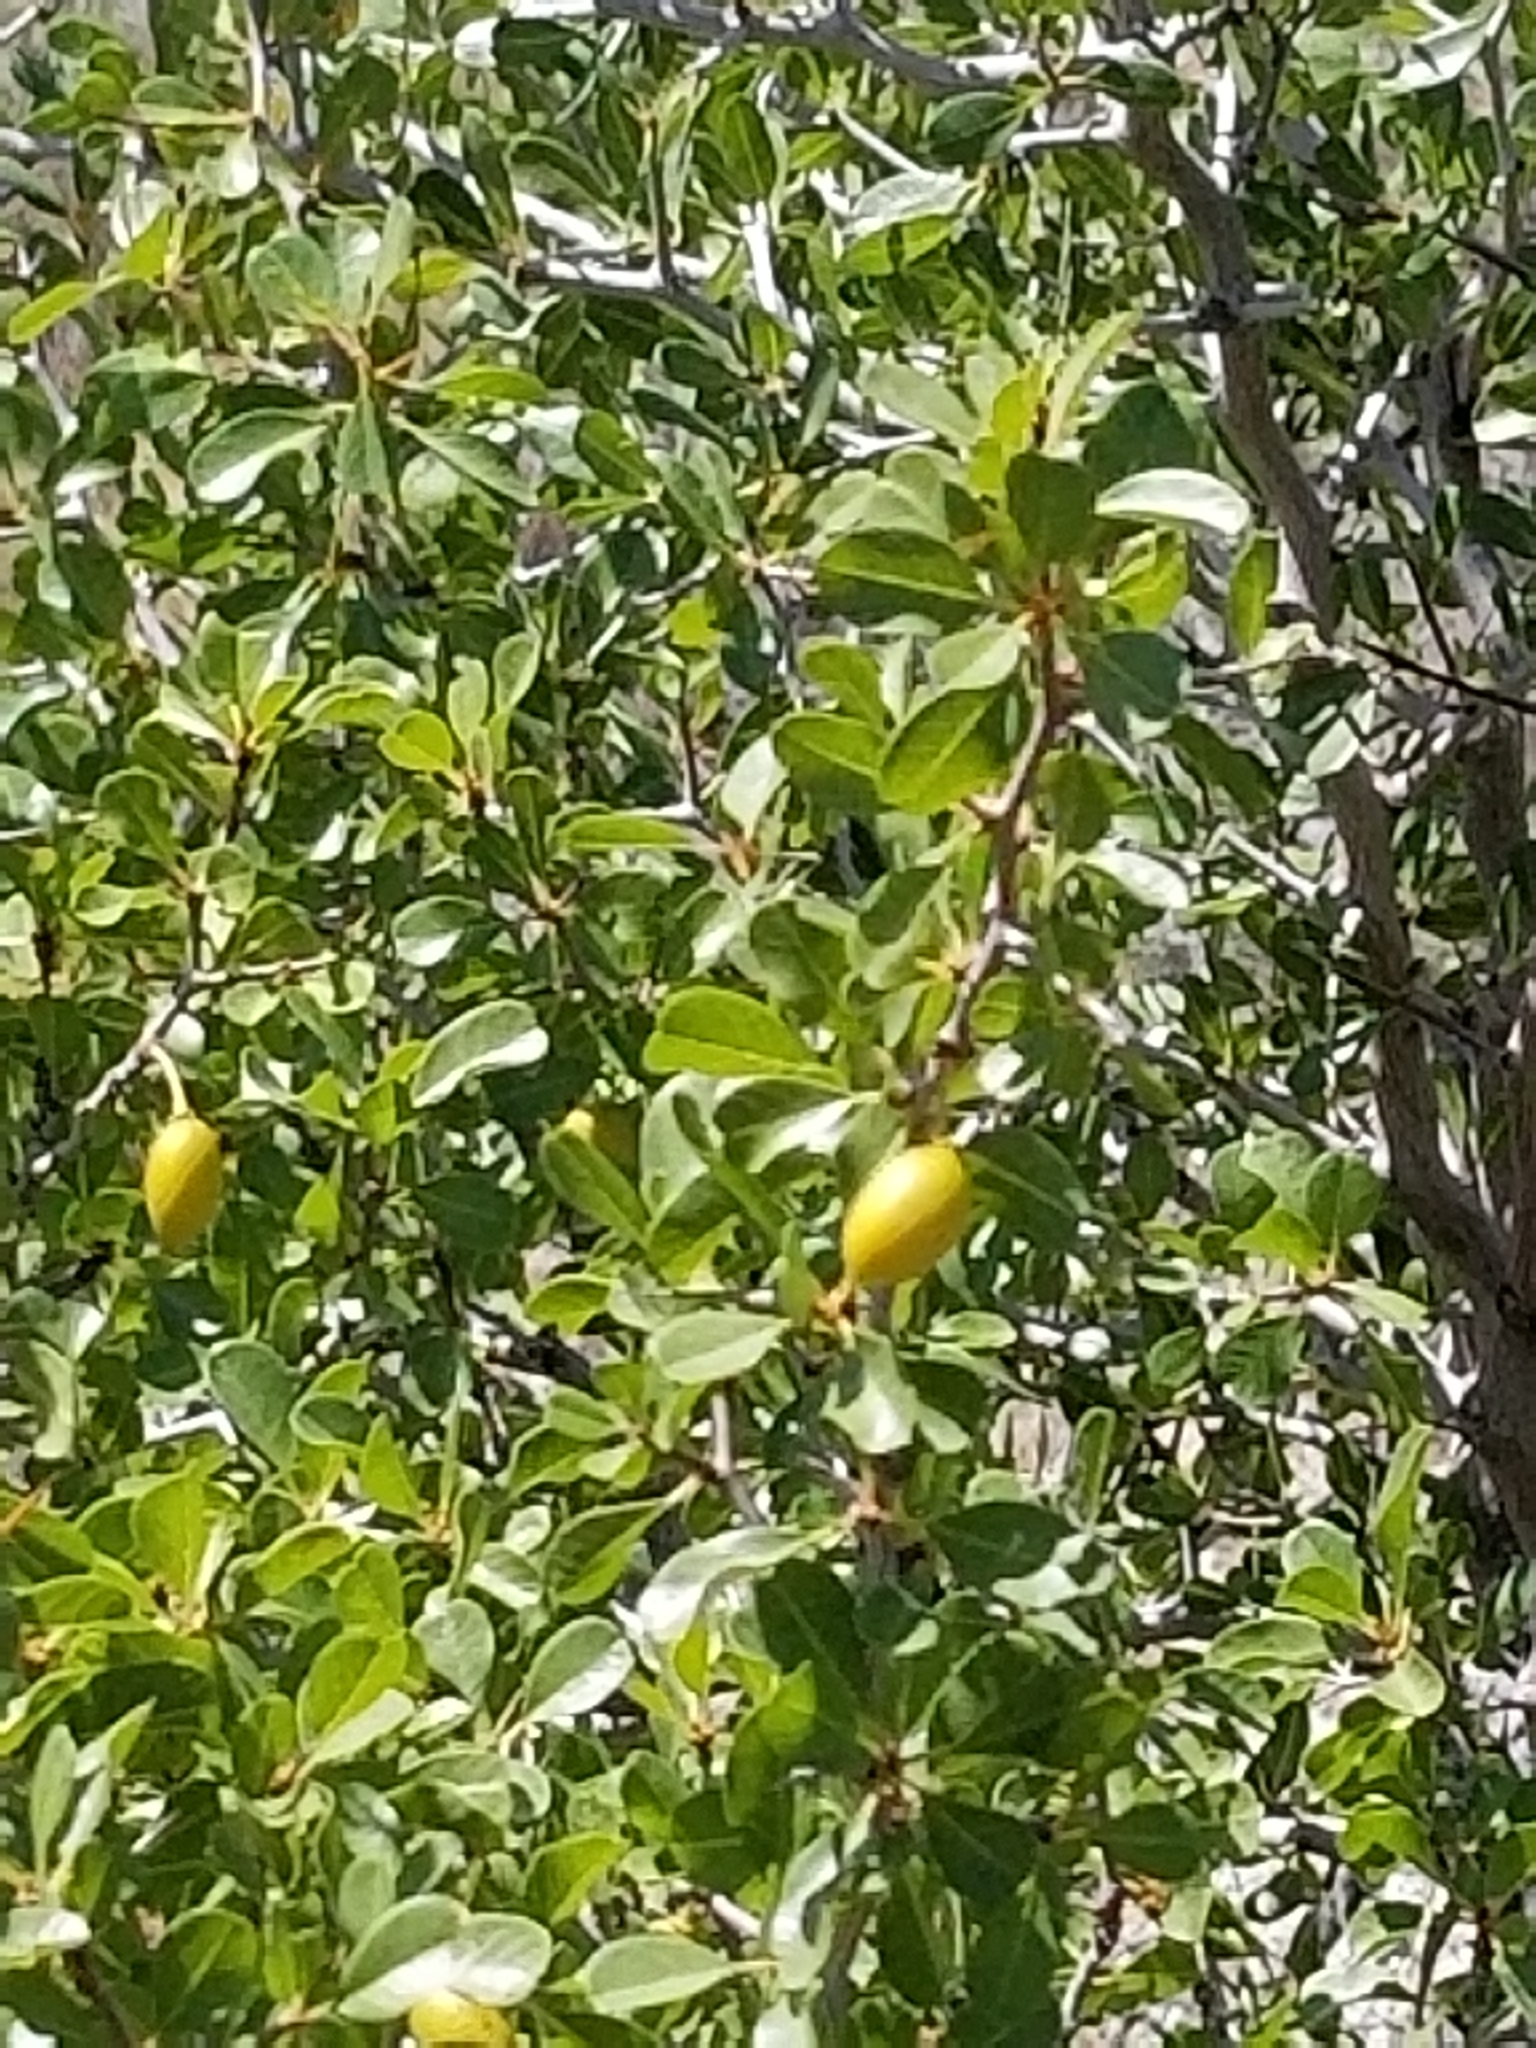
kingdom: Plantae
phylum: Tracheophyta
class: Magnoliopsida
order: Rosales
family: Rhamnaceae
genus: Pseudoziziphus
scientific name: Pseudoziziphus parryi
